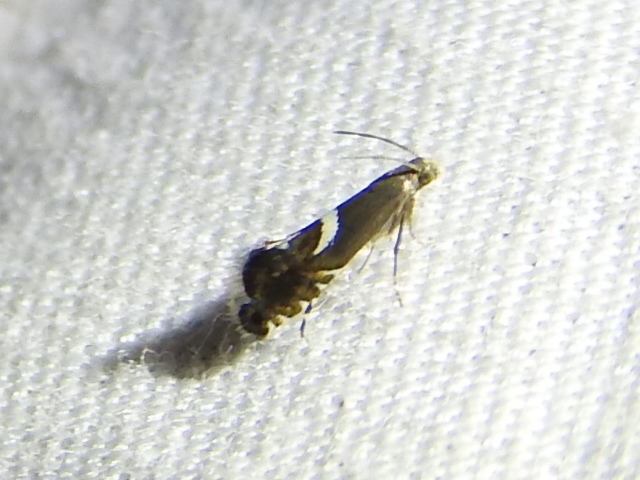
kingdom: Animalia
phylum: Arthropoda
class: Insecta
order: Lepidoptera
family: Glyphipterigidae
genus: Glyphipterix
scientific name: Glyphipterix Diploschizia impigritella
